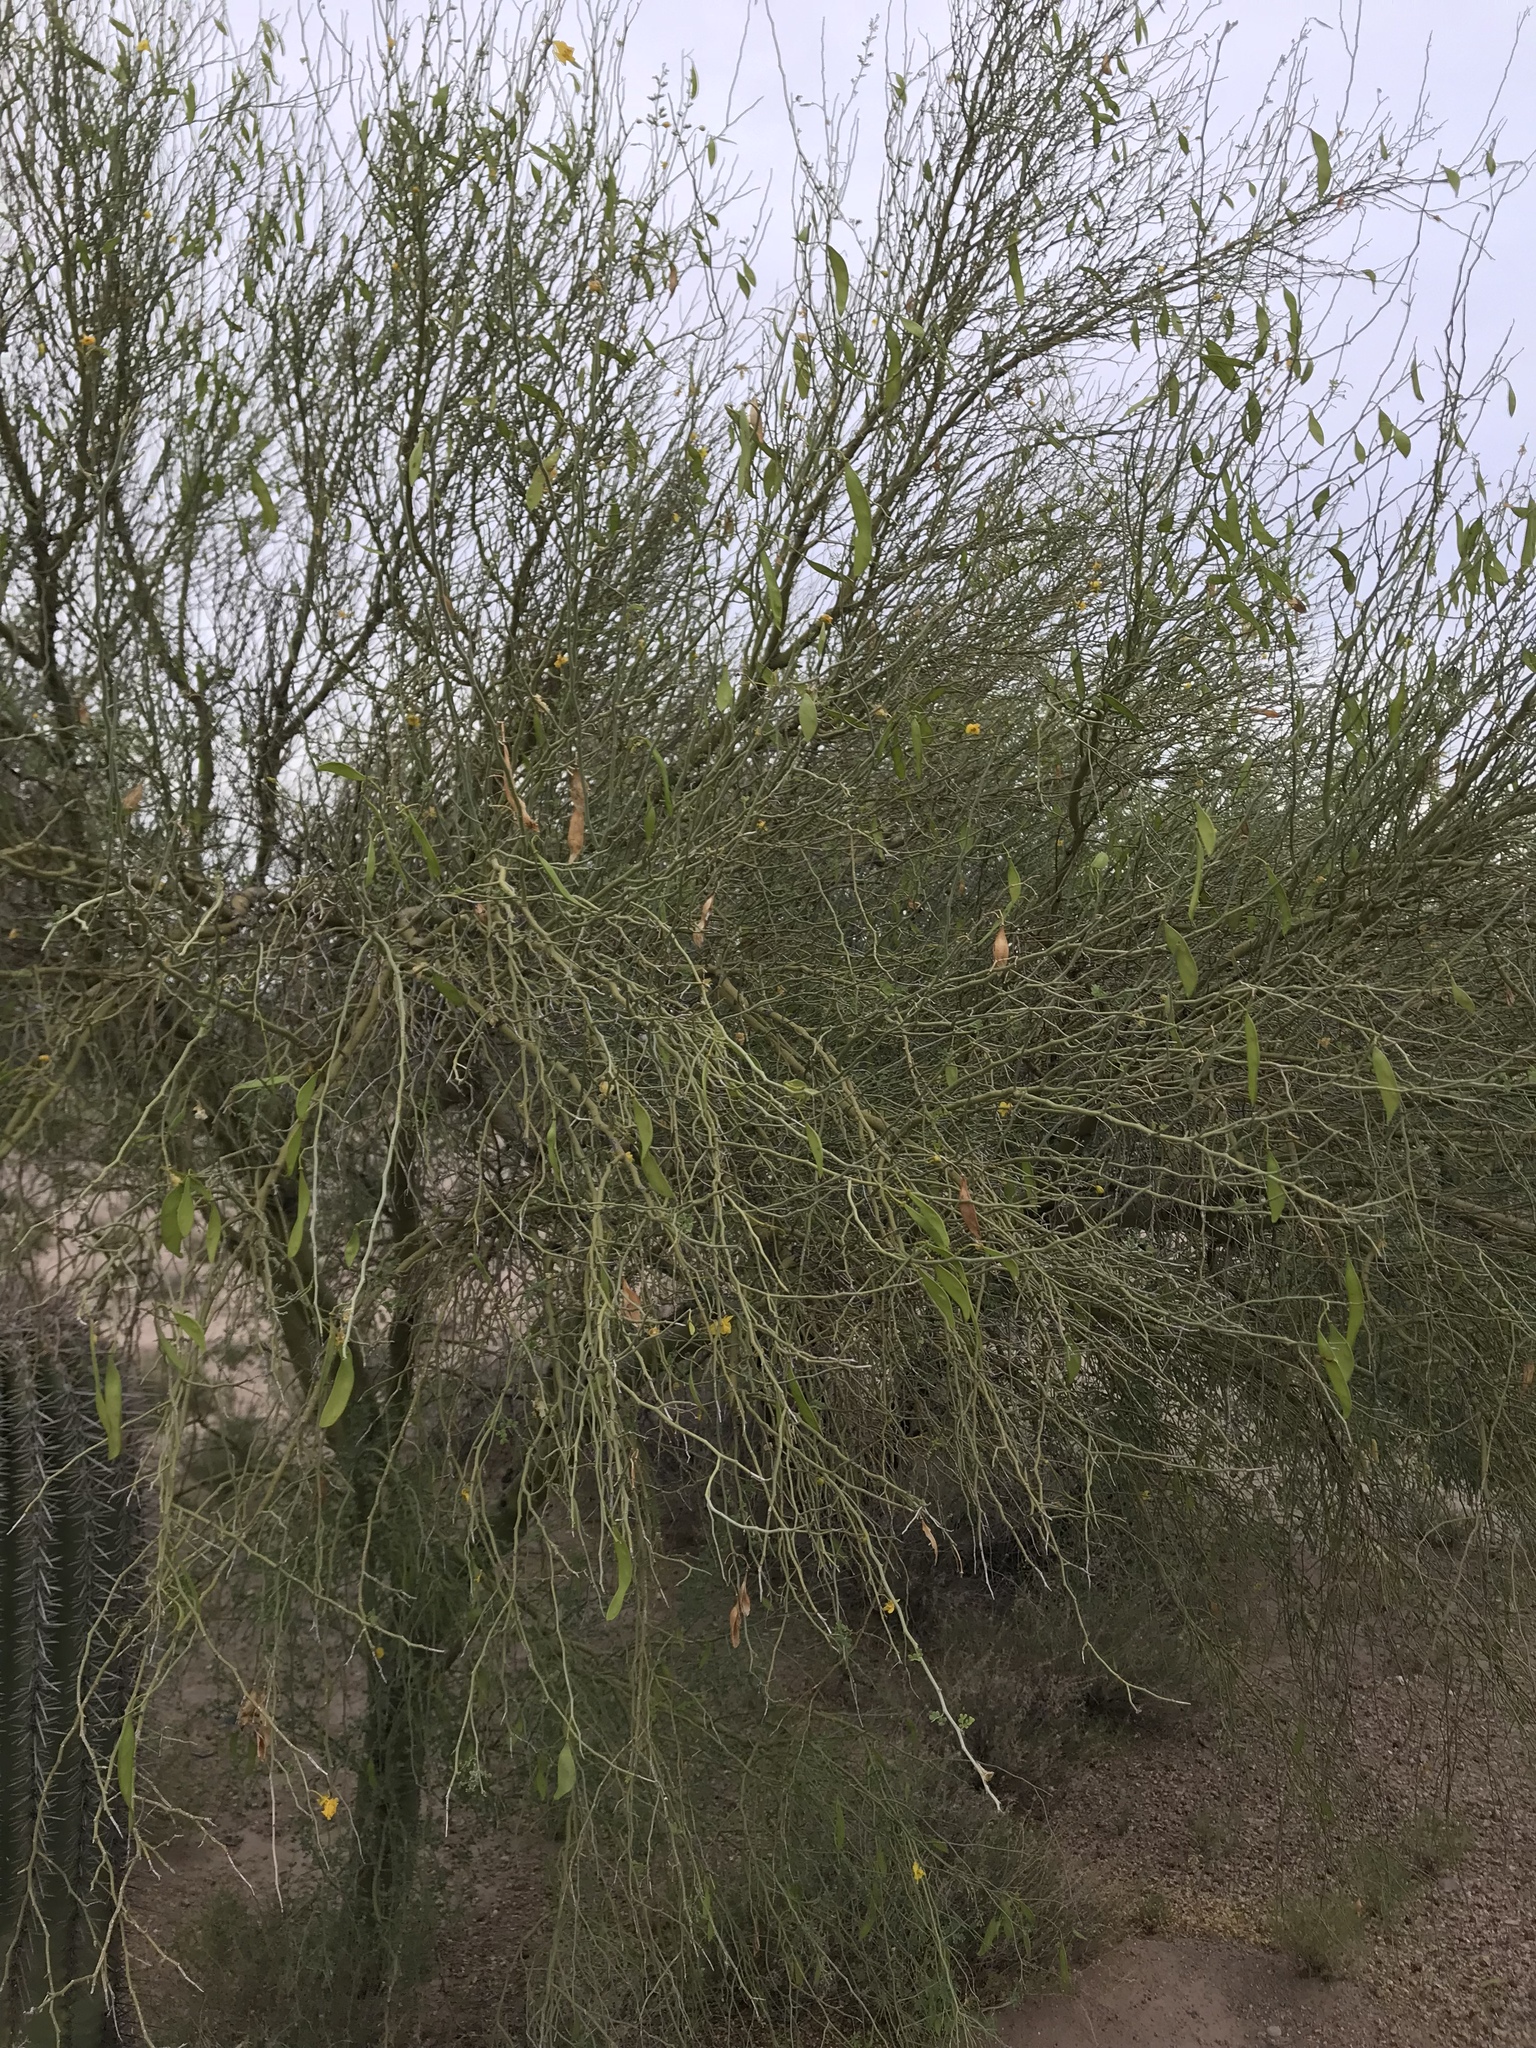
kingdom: Plantae
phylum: Tracheophyta
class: Magnoliopsida
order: Fabales
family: Fabaceae
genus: Parkinsonia
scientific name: Parkinsonia florida
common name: Blue paloverde
